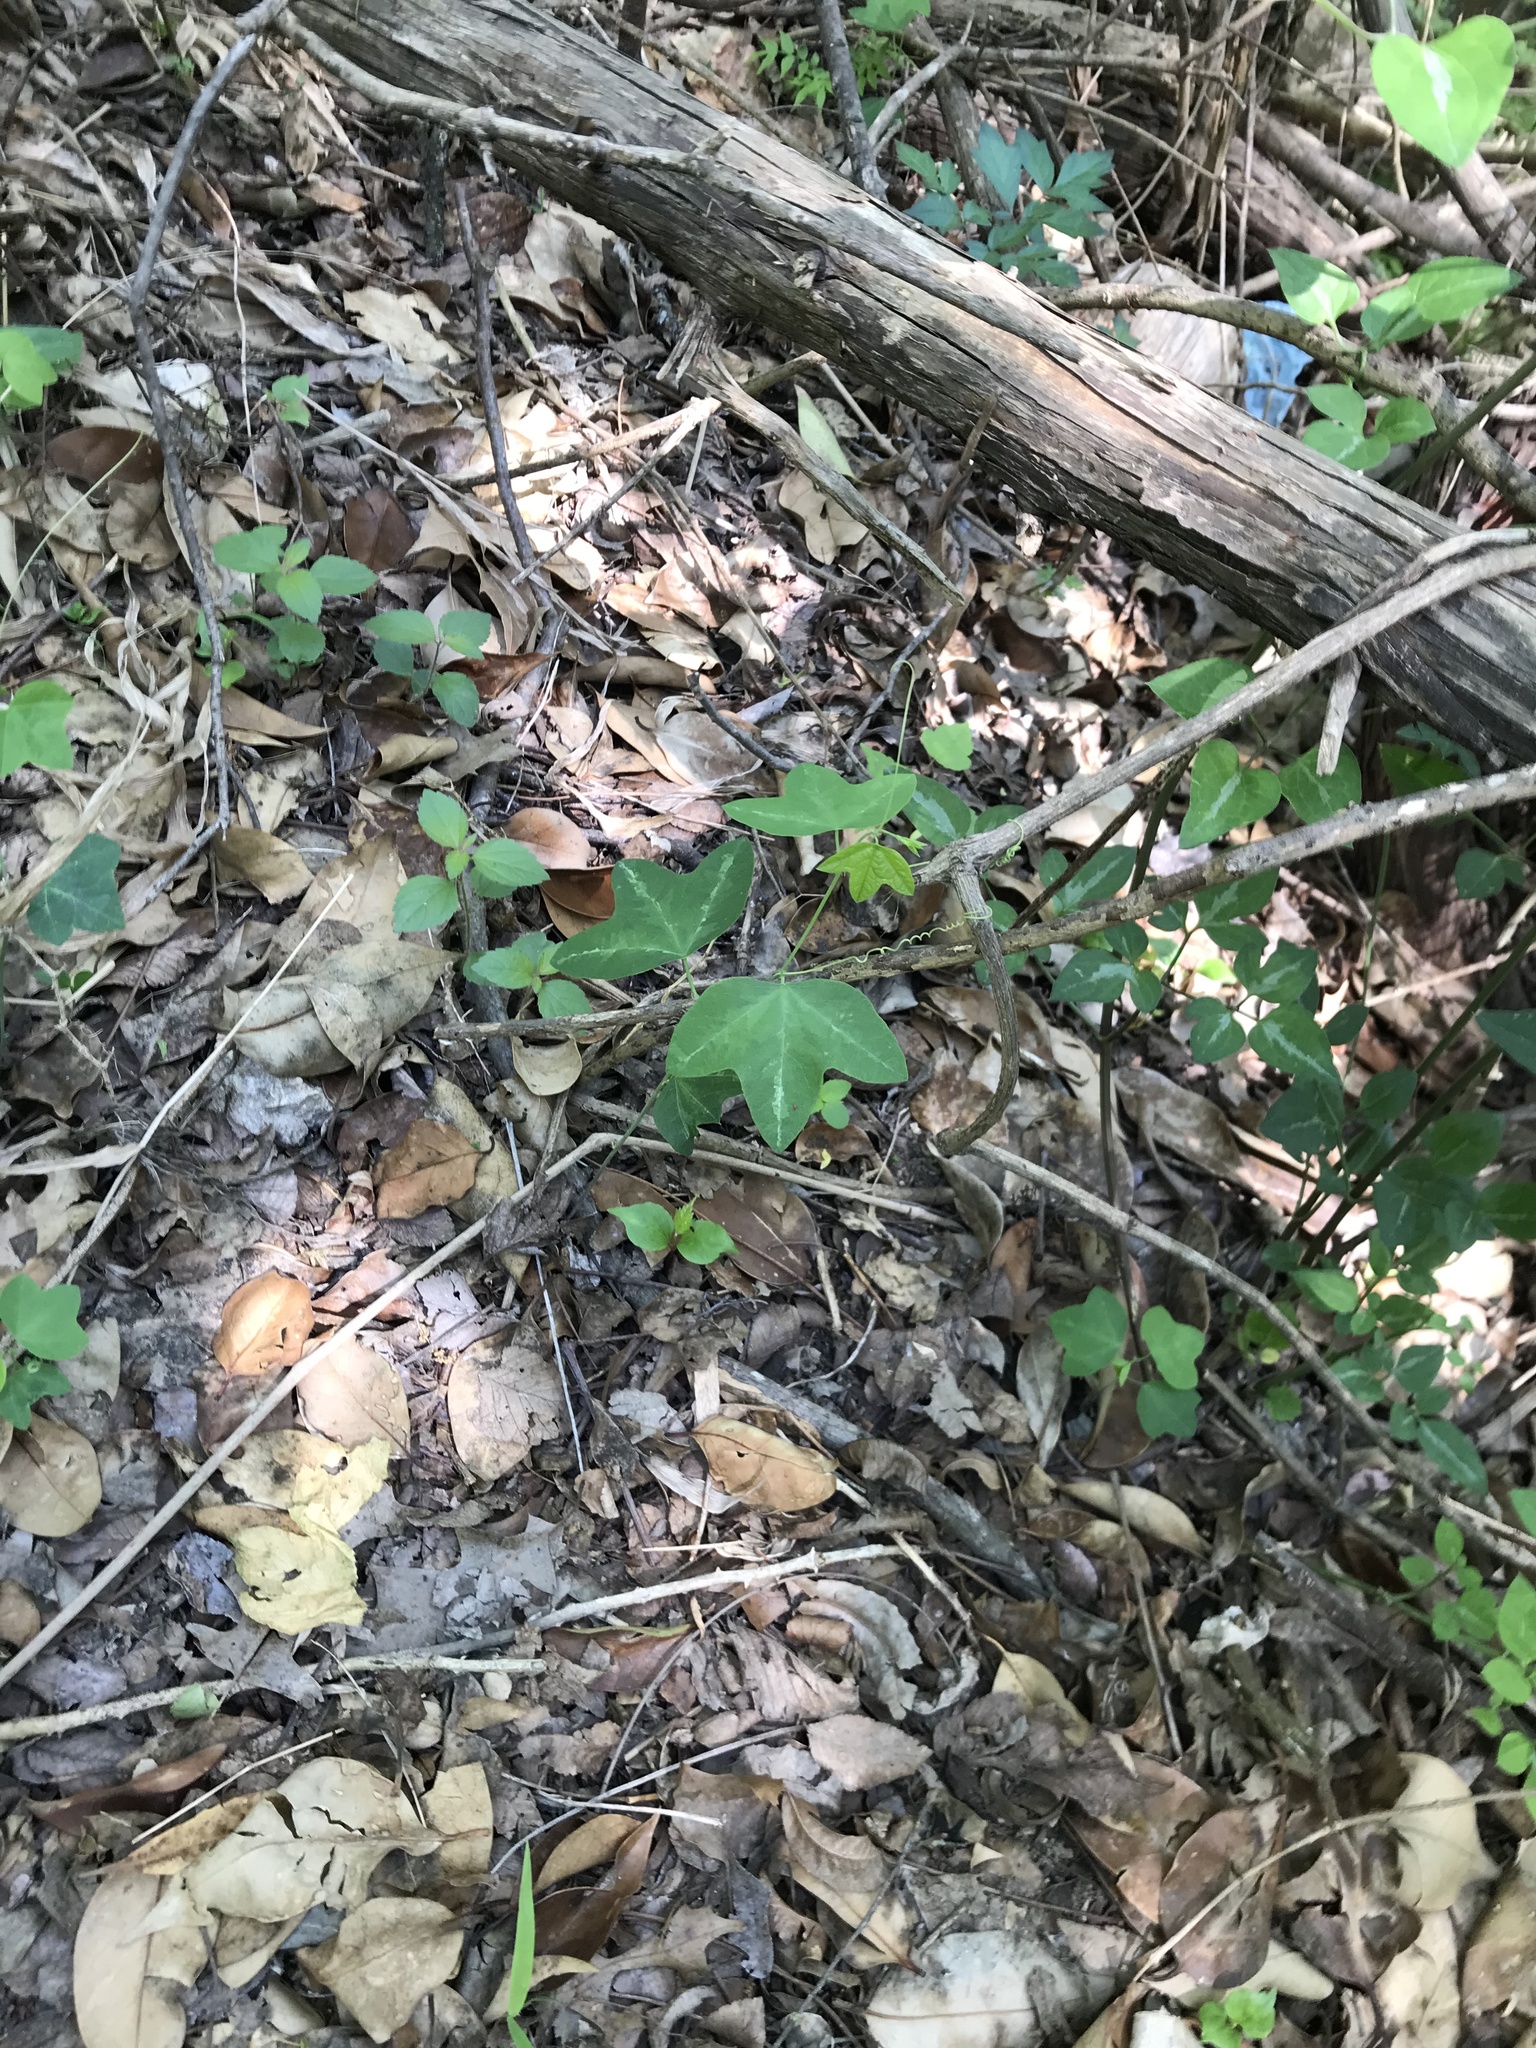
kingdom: Plantae
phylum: Tracheophyta
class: Magnoliopsida
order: Malpighiales
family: Passifloraceae
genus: Passiflora
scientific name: Passiflora lutea
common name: Yellow passionflower
